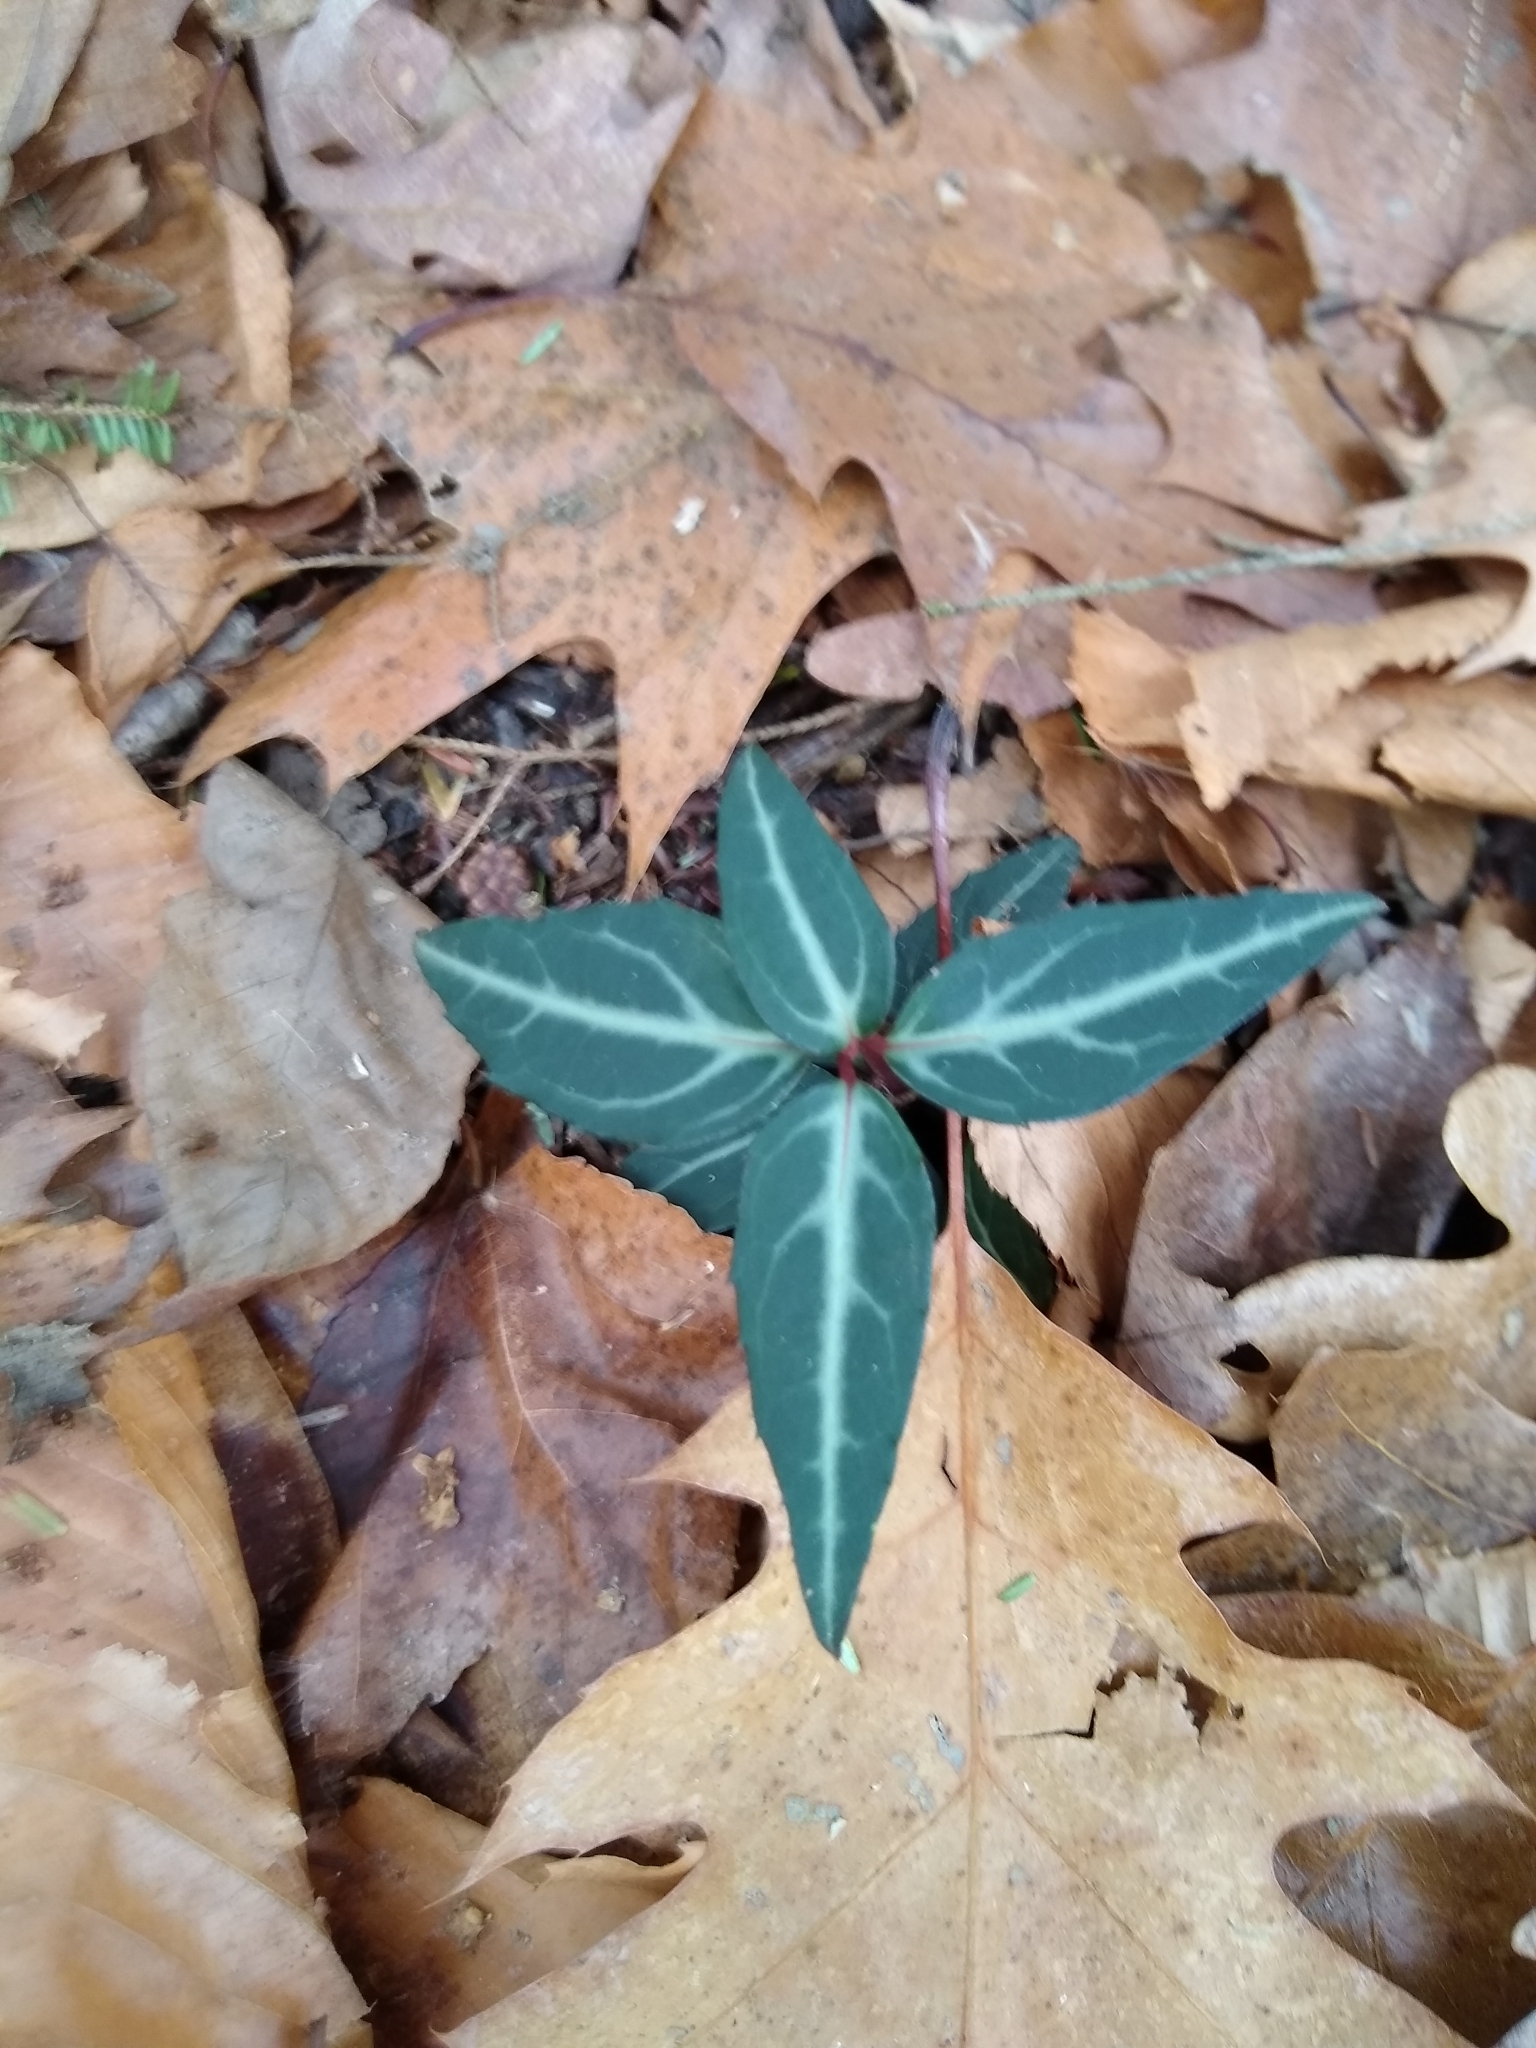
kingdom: Plantae
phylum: Tracheophyta
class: Magnoliopsida
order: Ericales
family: Ericaceae
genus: Chimaphila
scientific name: Chimaphila maculata
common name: Spotted pipsissewa
